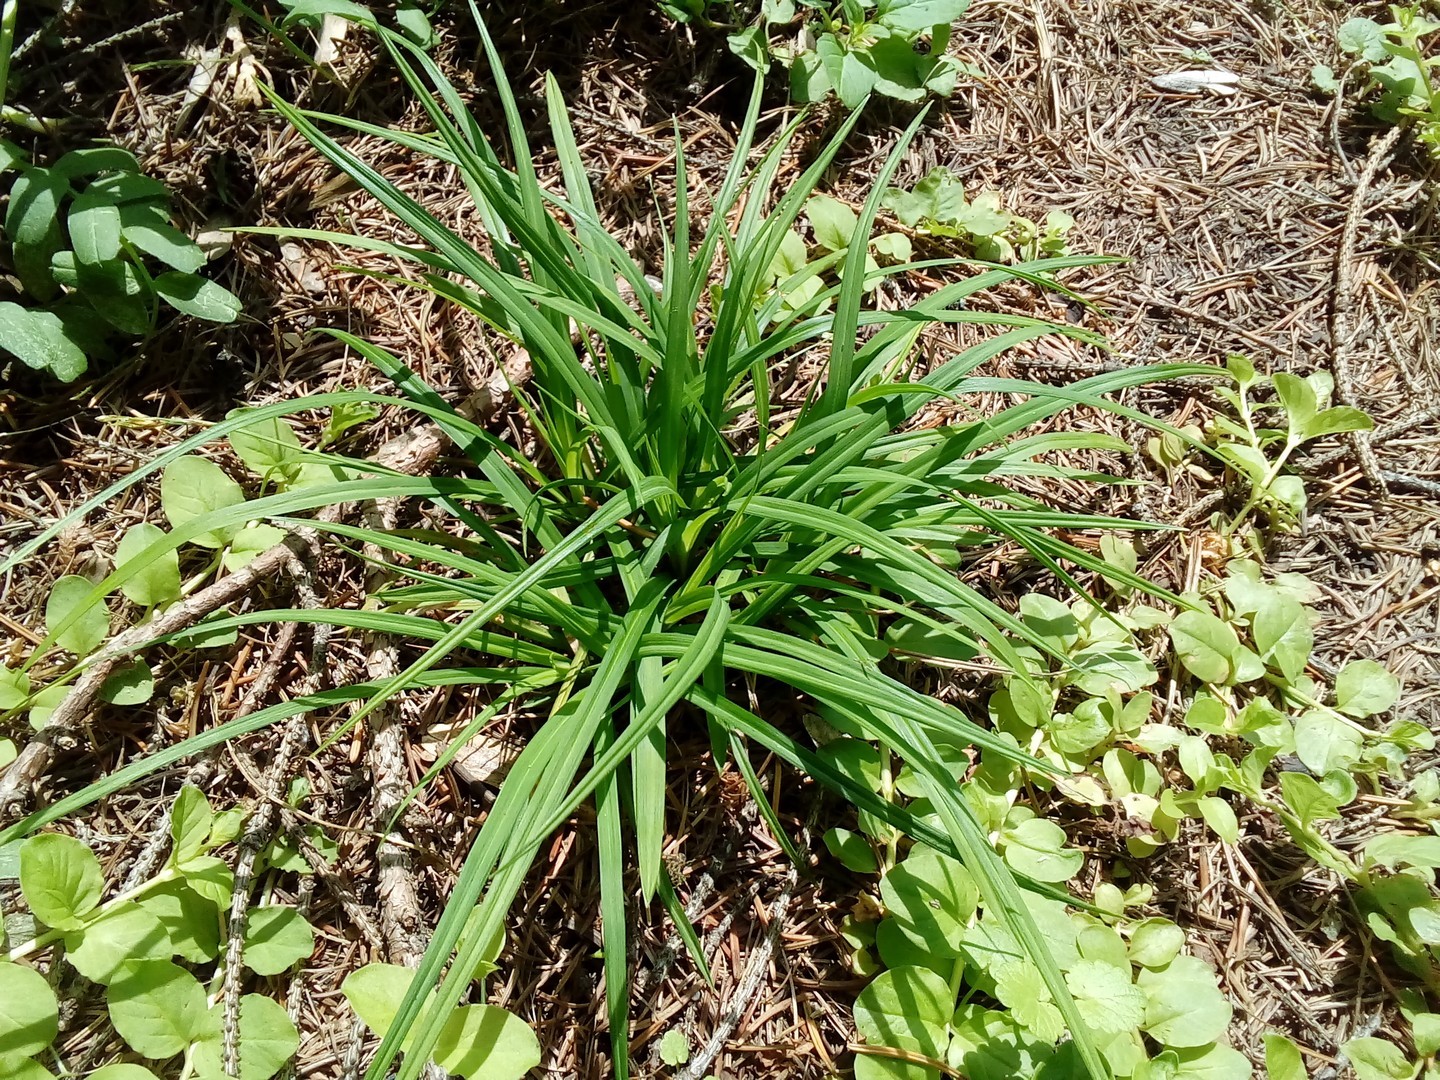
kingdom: Plantae
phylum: Tracheophyta
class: Liliopsida
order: Poales
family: Cyperaceae
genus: Carex
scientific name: Carex digitata
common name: Fingered sedge
